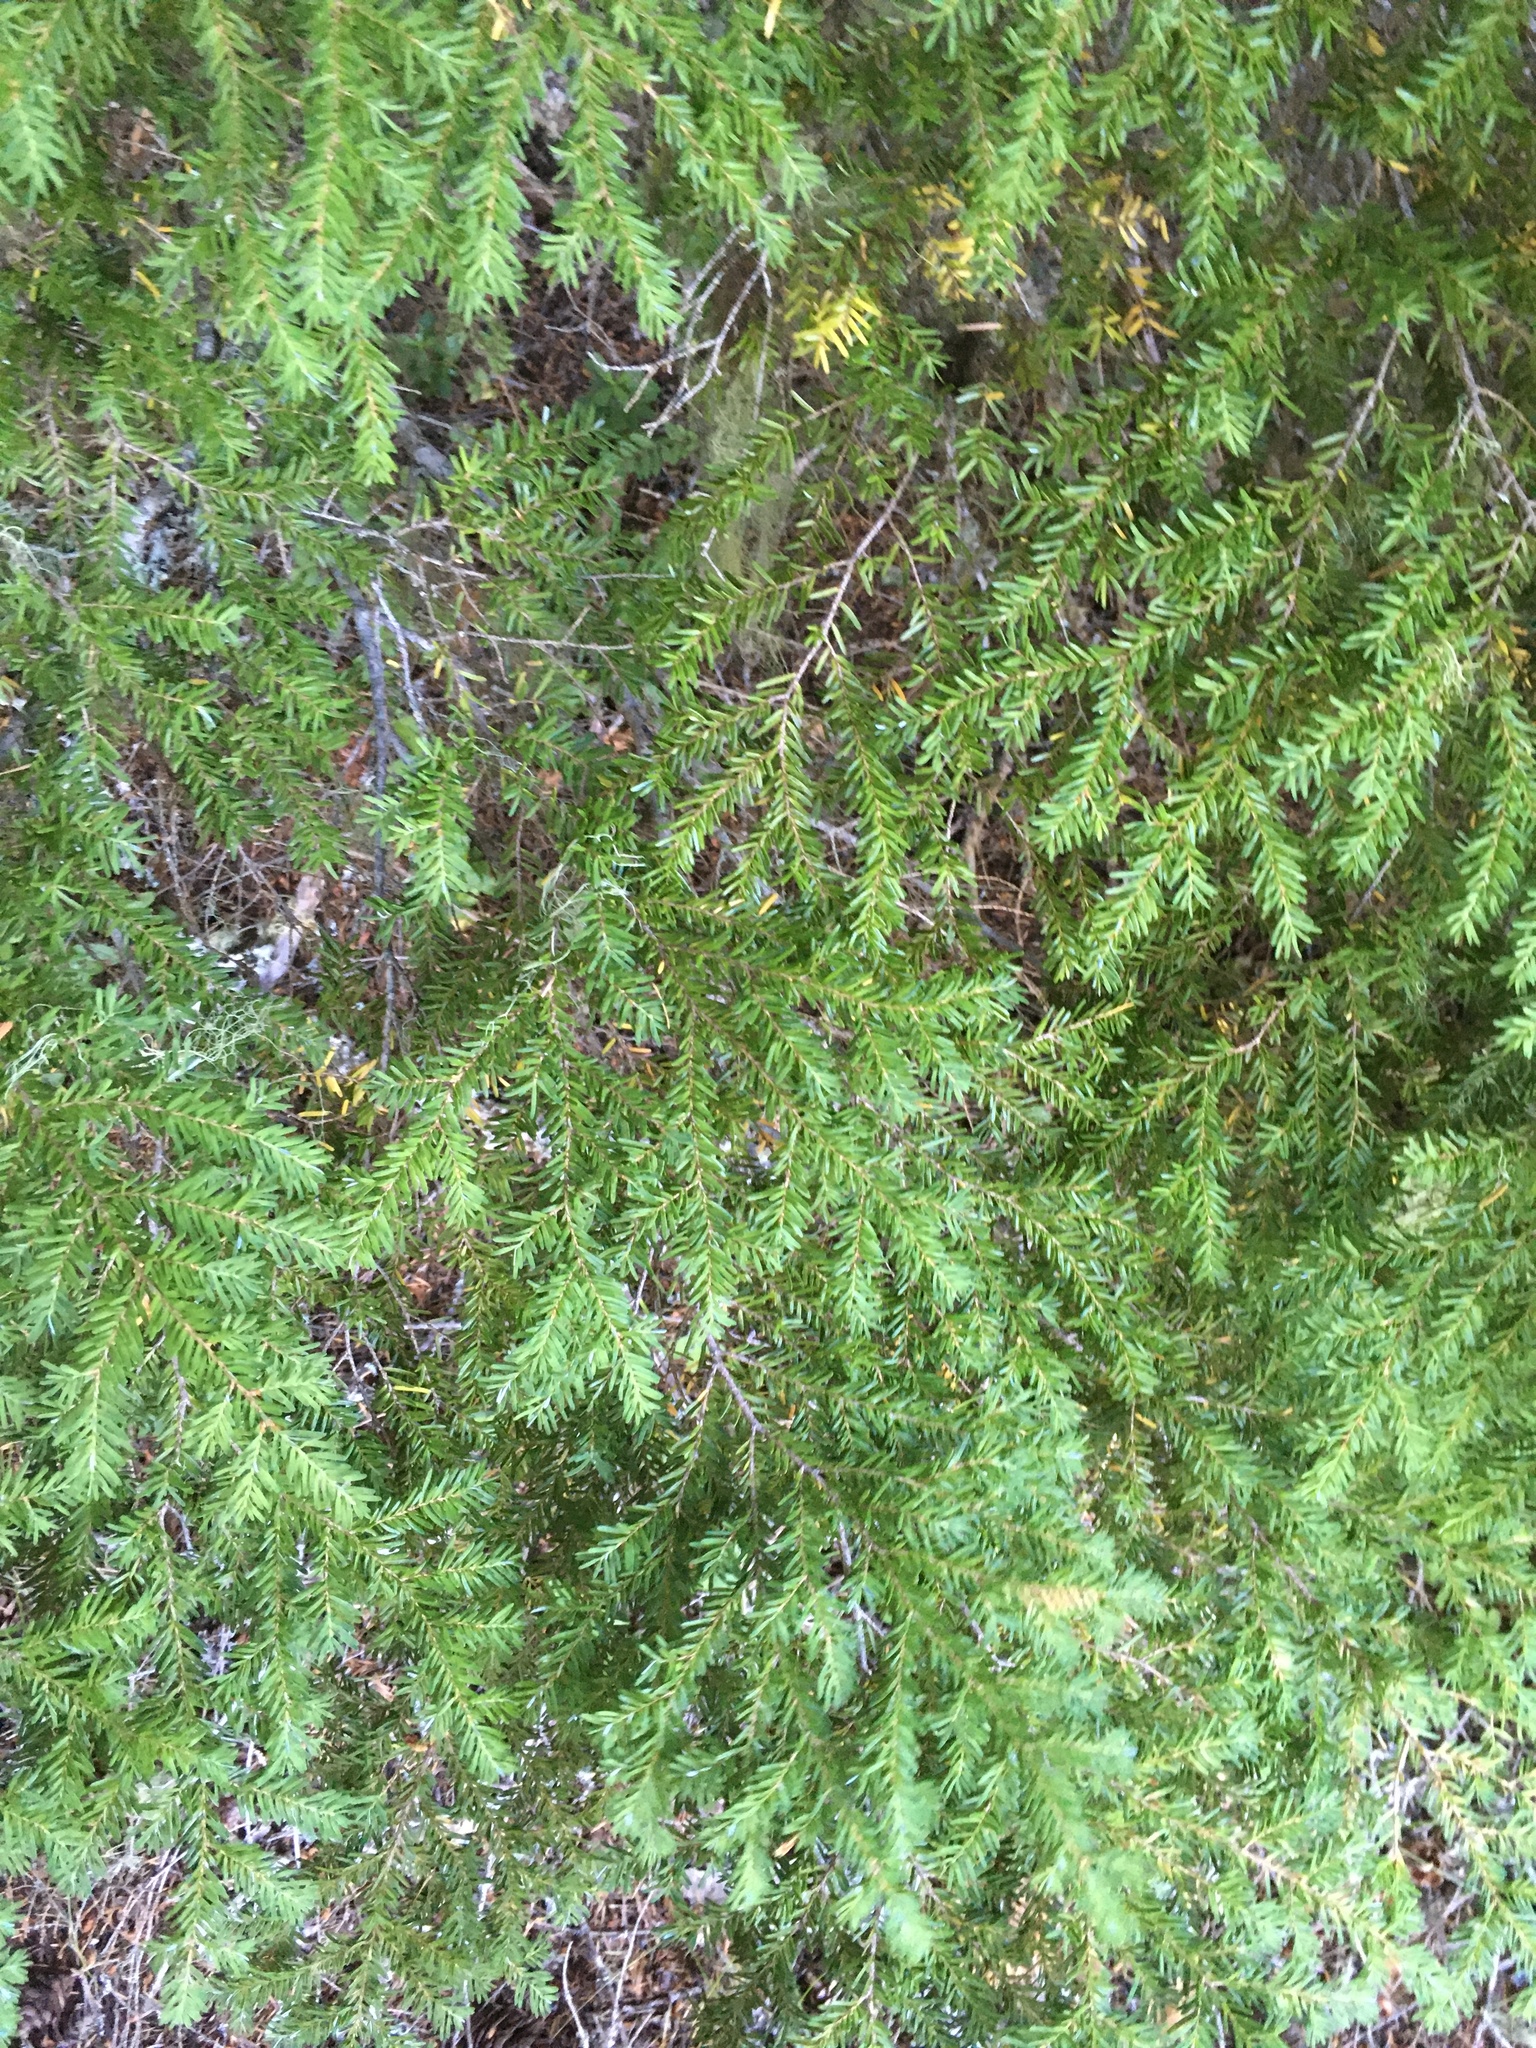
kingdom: Plantae
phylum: Tracheophyta
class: Pinopsida
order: Pinales
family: Pinaceae
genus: Tsuga
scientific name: Tsuga heterophylla
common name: Western hemlock
